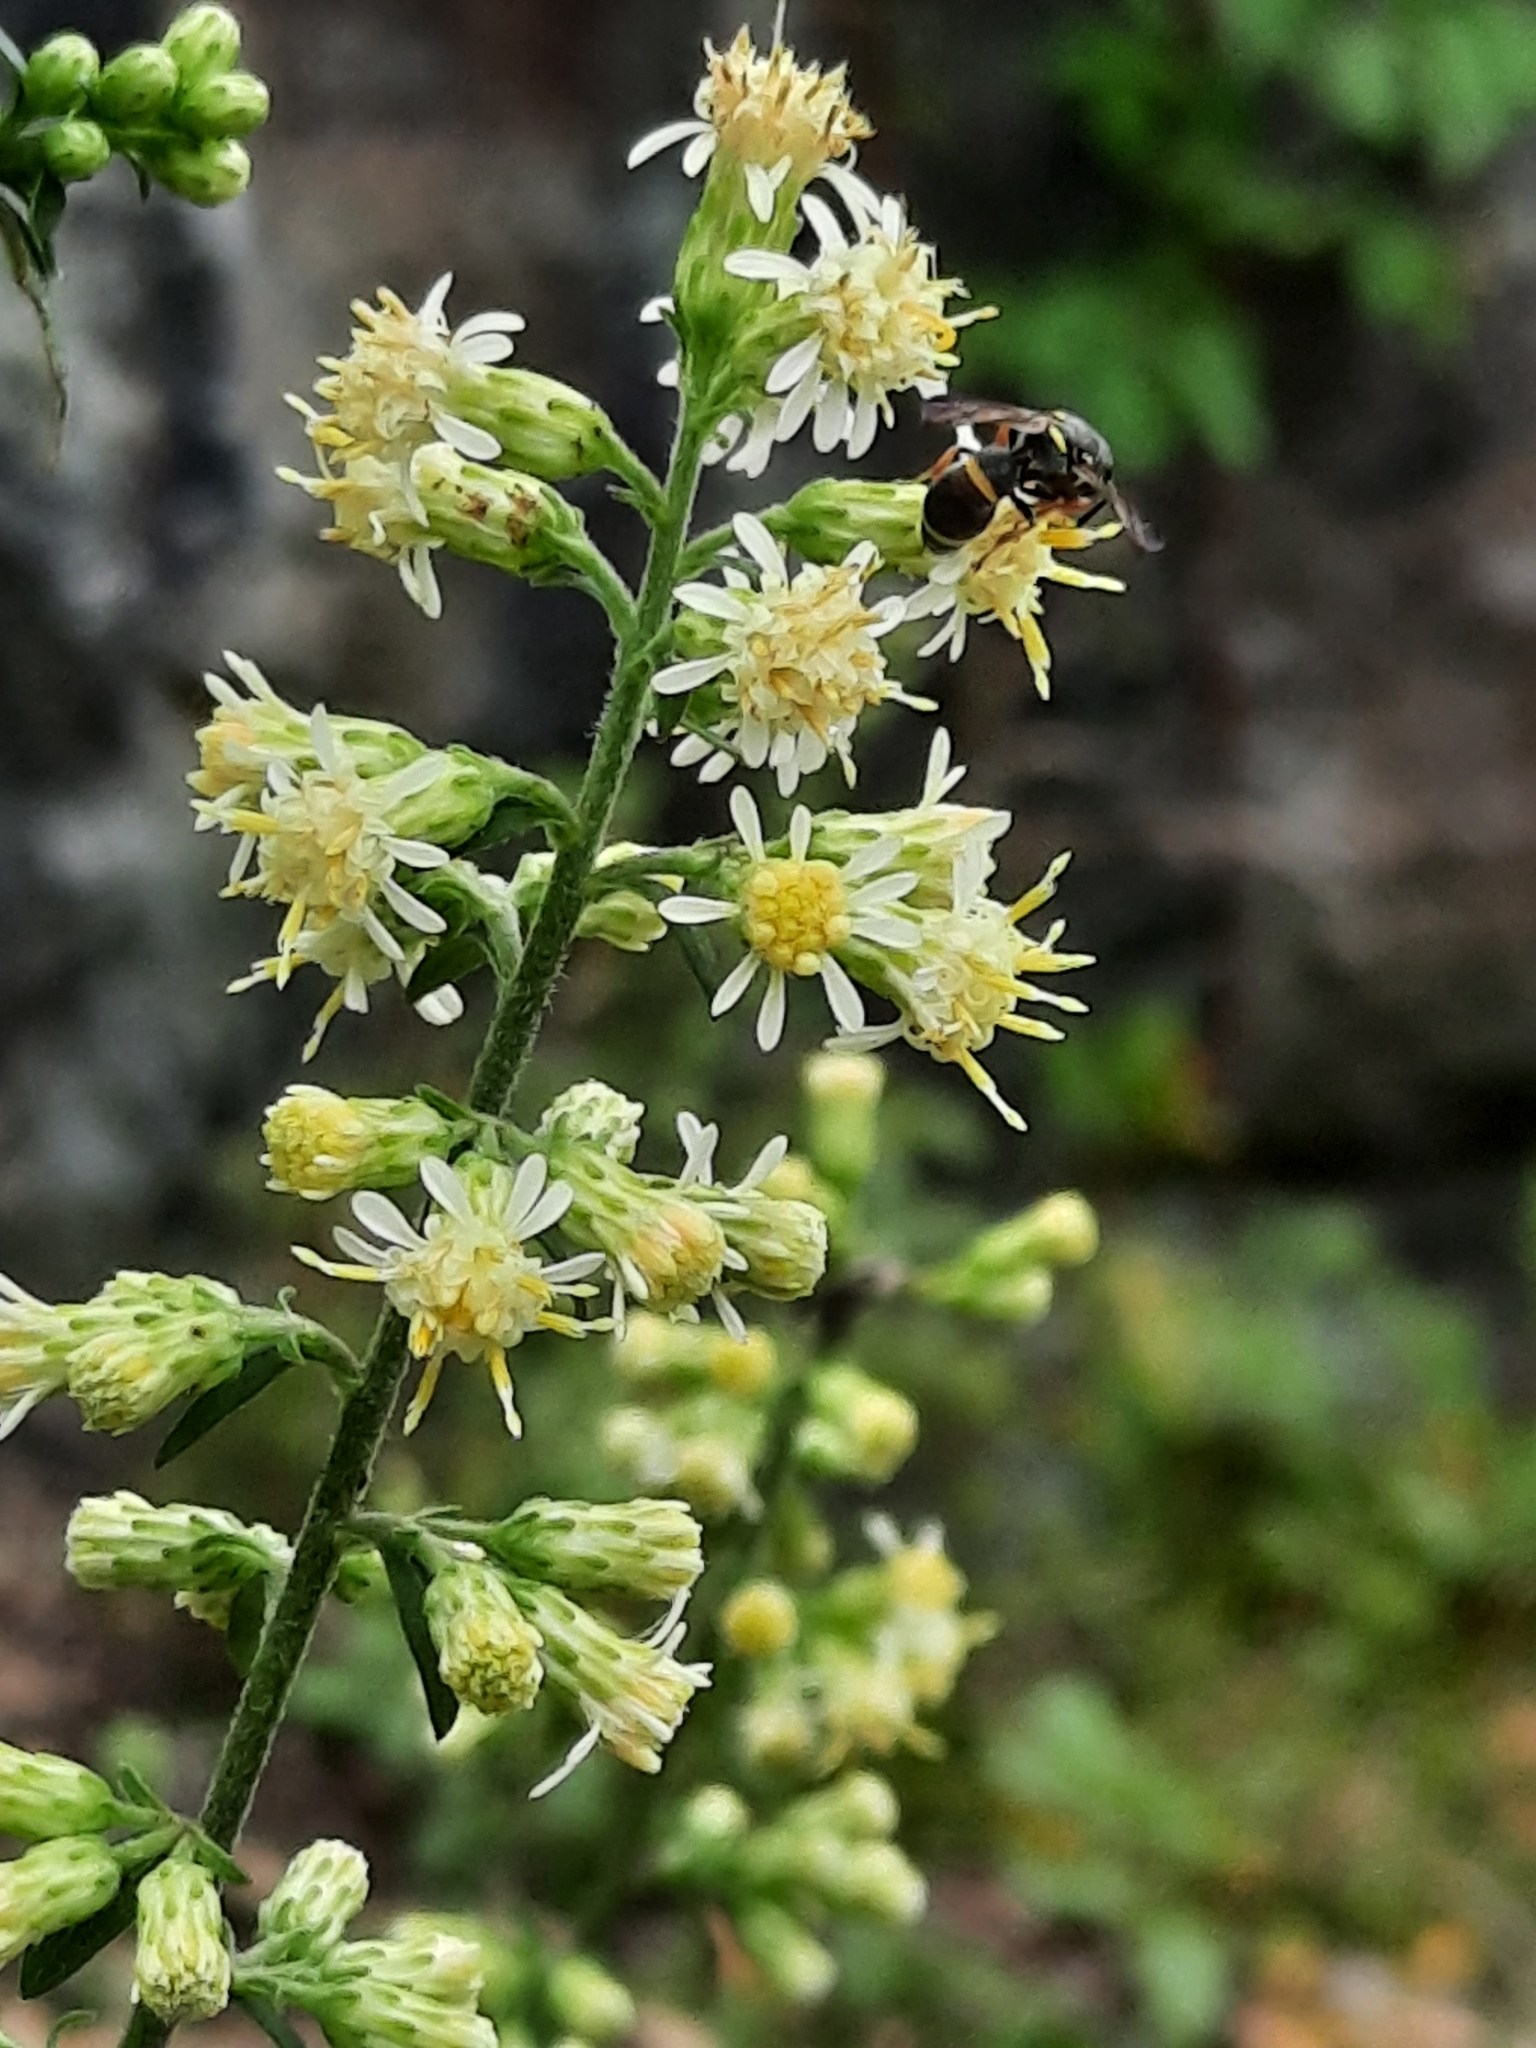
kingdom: Plantae
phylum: Tracheophyta
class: Magnoliopsida
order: Asterales
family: Asteraceae
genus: Solidago
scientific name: Solidago bicolor
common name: Silverrod
